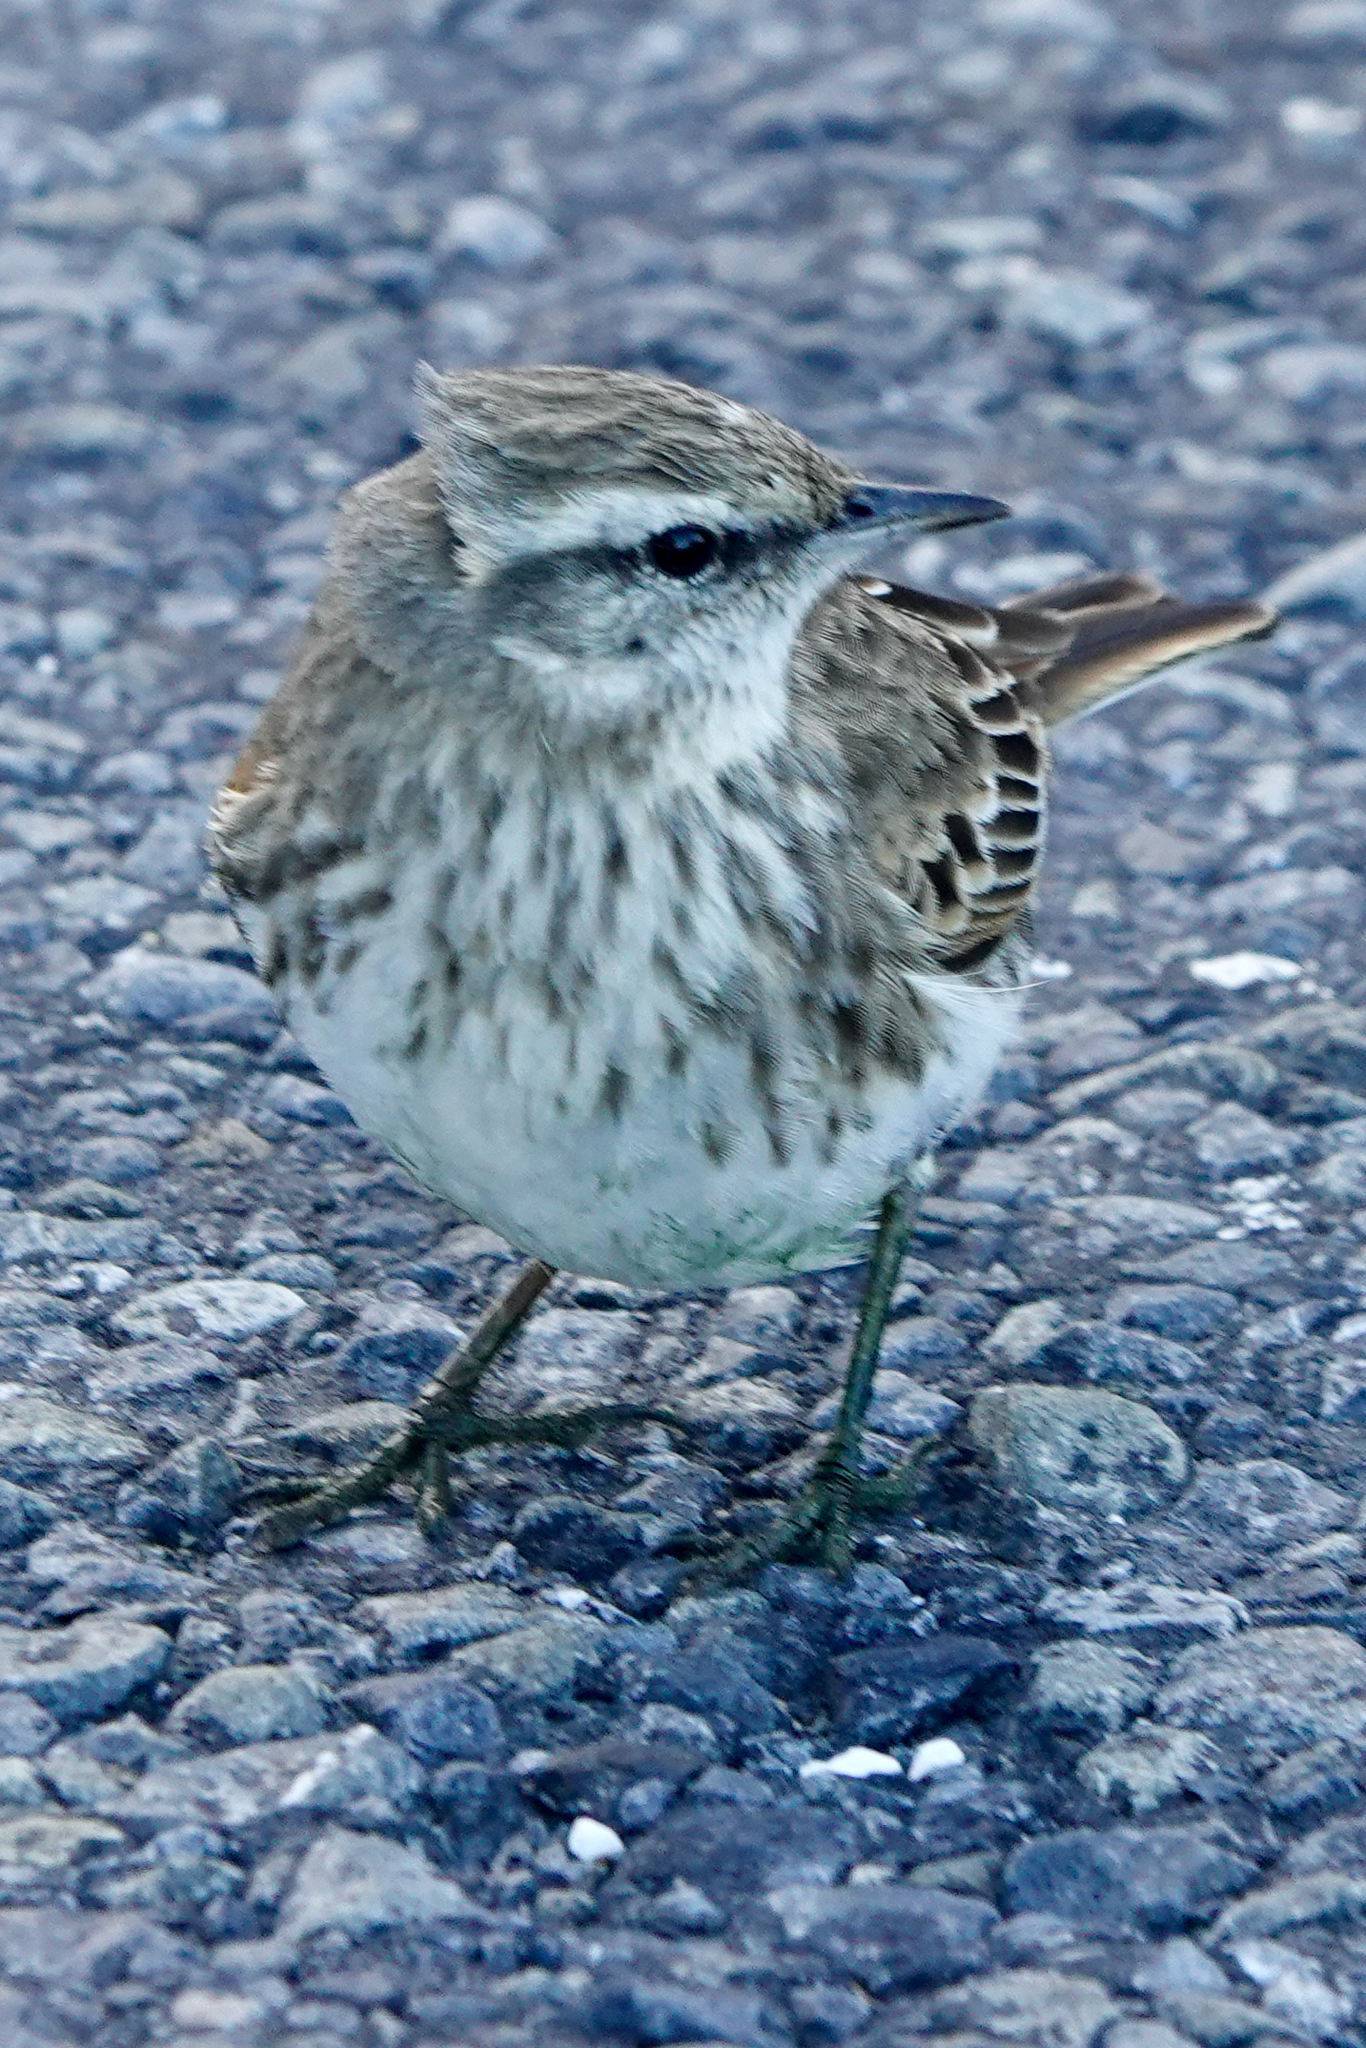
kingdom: Animalia
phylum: Chordata
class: Aves
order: Passeriformes
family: Motacillidae
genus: Anthus
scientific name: Anthus novaeseelandiae
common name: New zealand pipit
